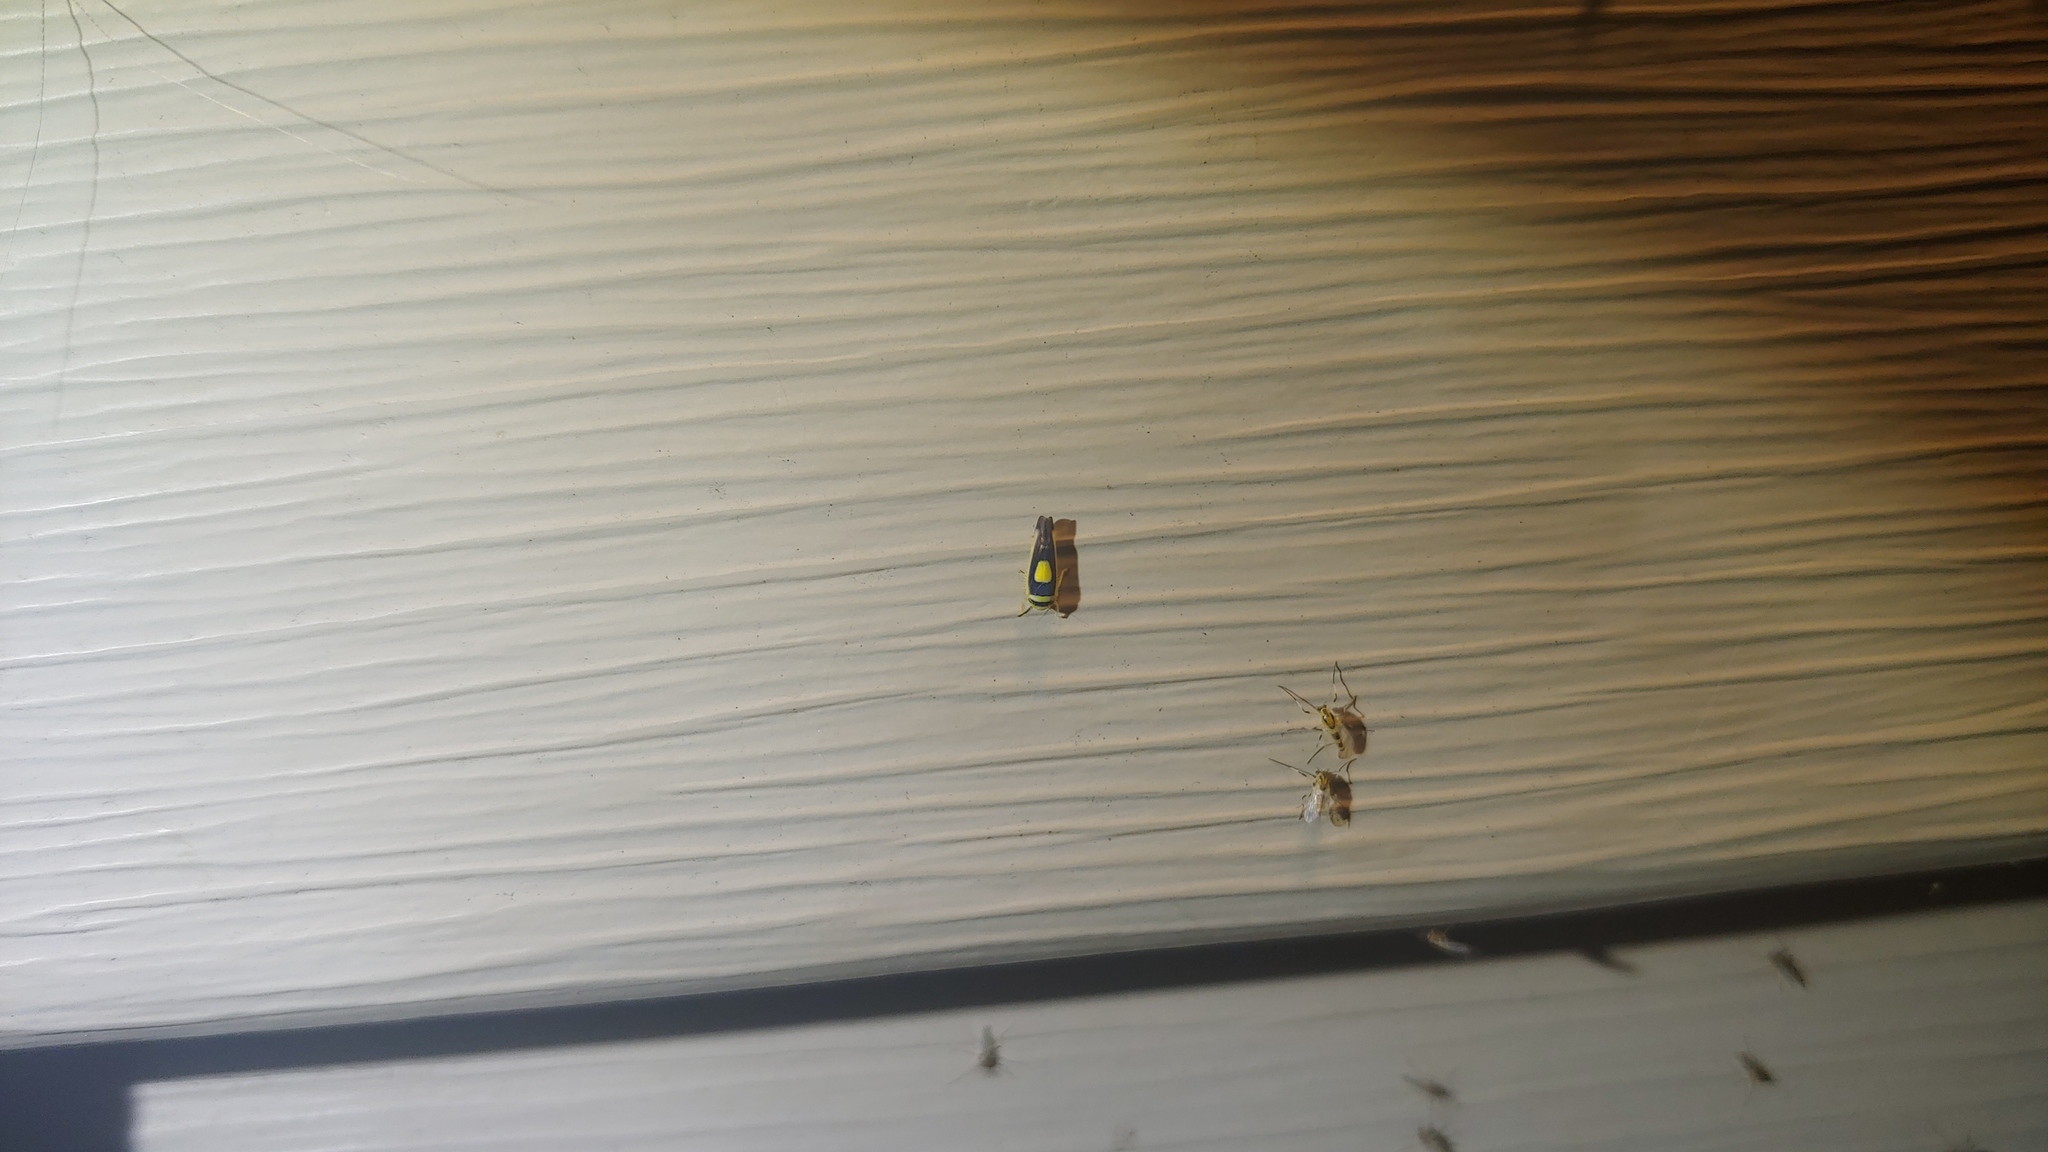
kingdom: Animalia
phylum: Arthropoda
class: Insecta
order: Hemiptera
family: Cicadellidae
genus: Colladonus
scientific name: Colladonus clitellarius
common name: The saddleback leafhopper
